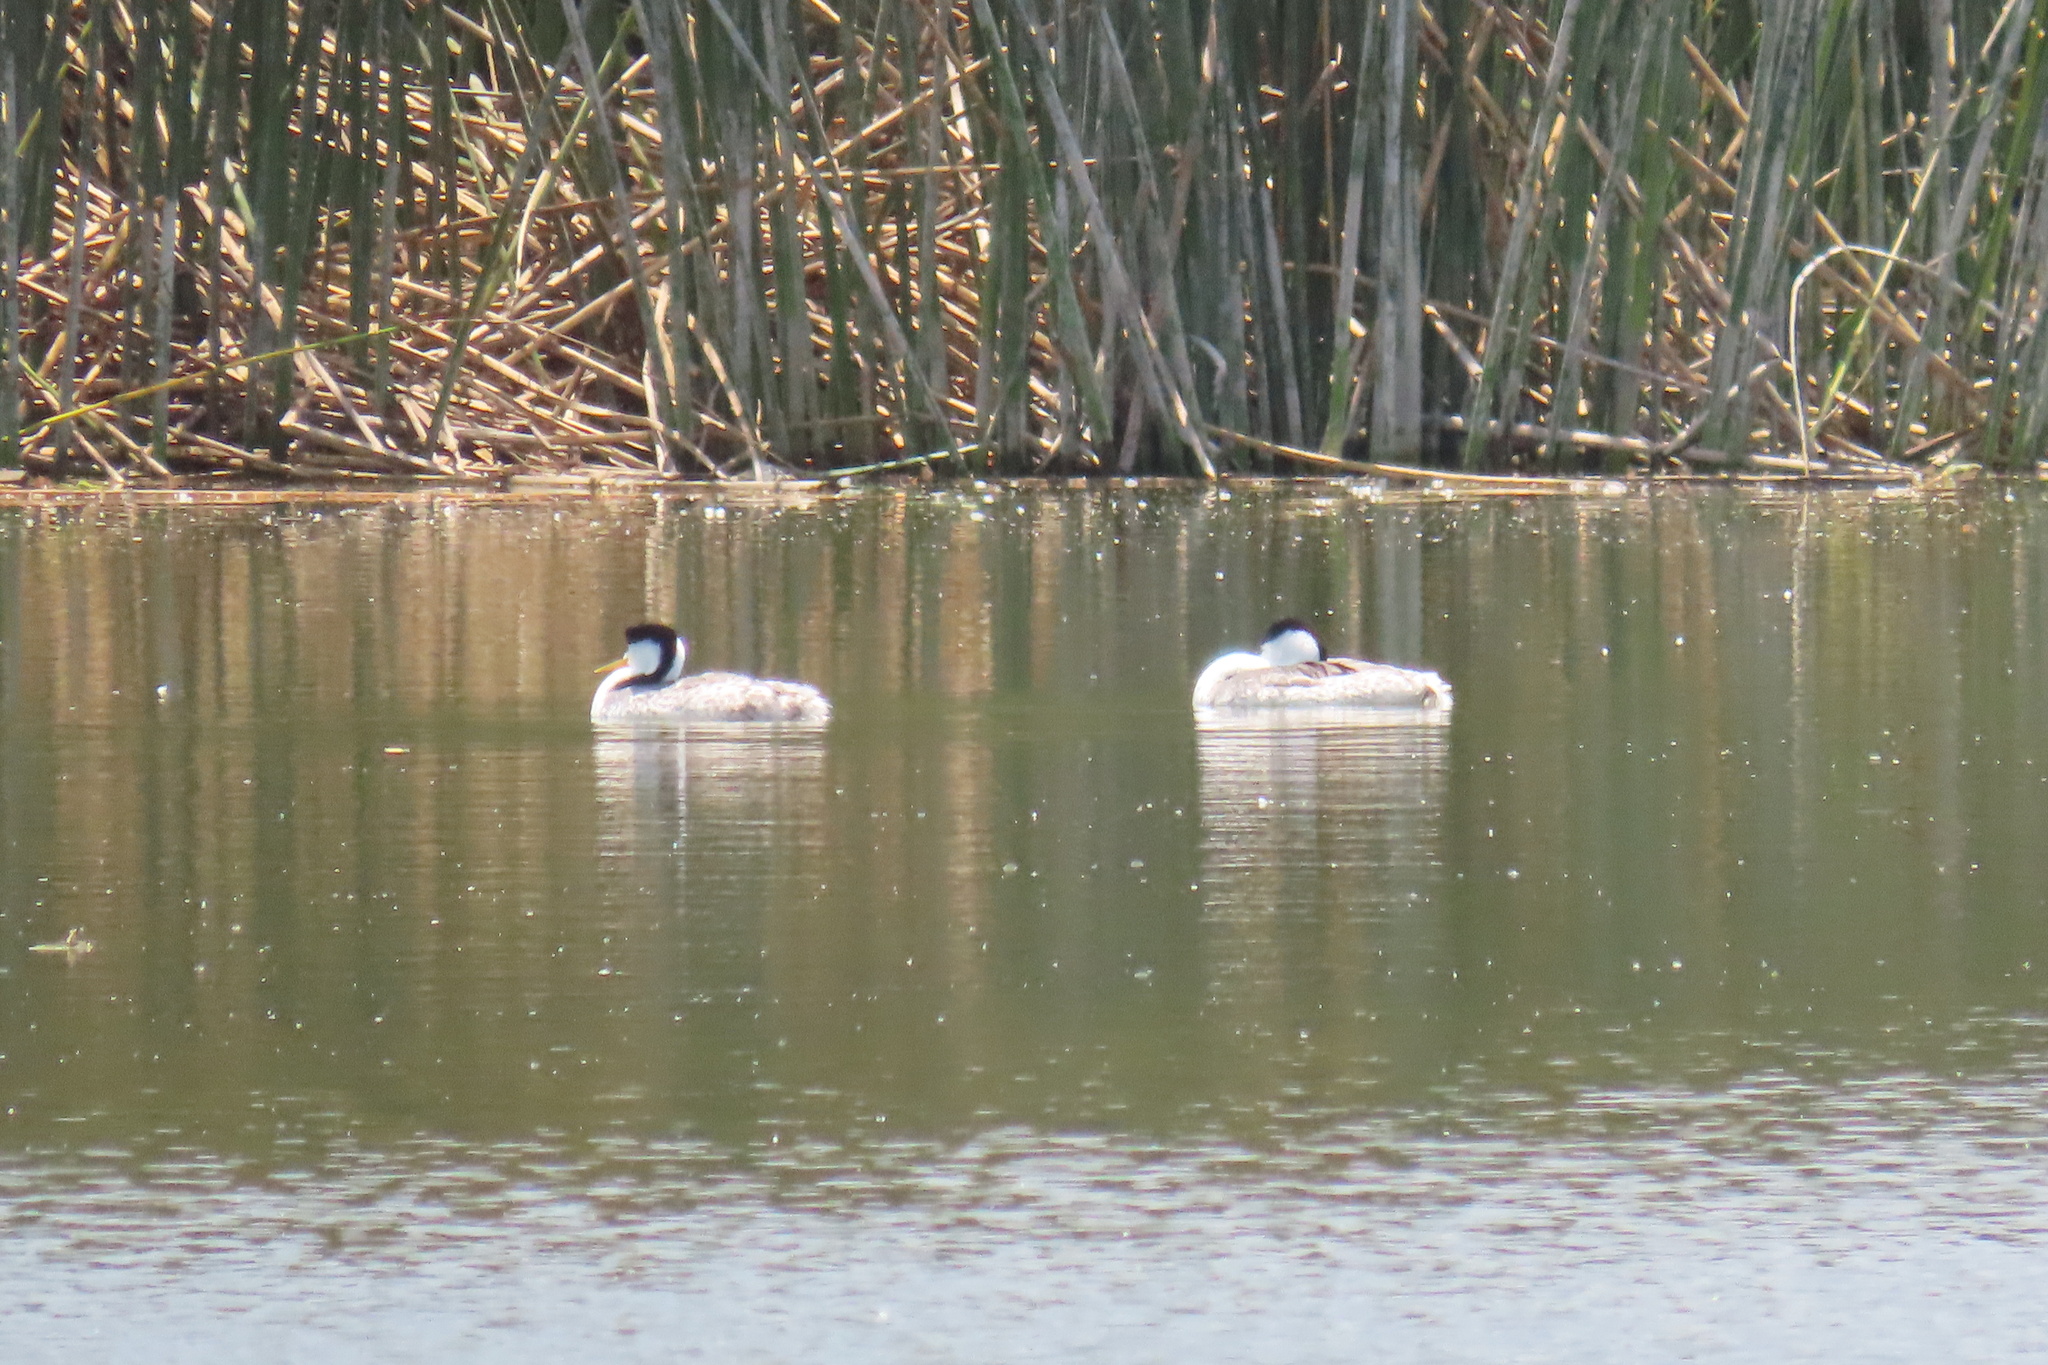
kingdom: Animalia
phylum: Chordata
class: Aves
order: Podicipediformes
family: Podicipedidae
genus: Aechmophorus
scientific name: Aechmophorus clarkii
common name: Clark's grebe
